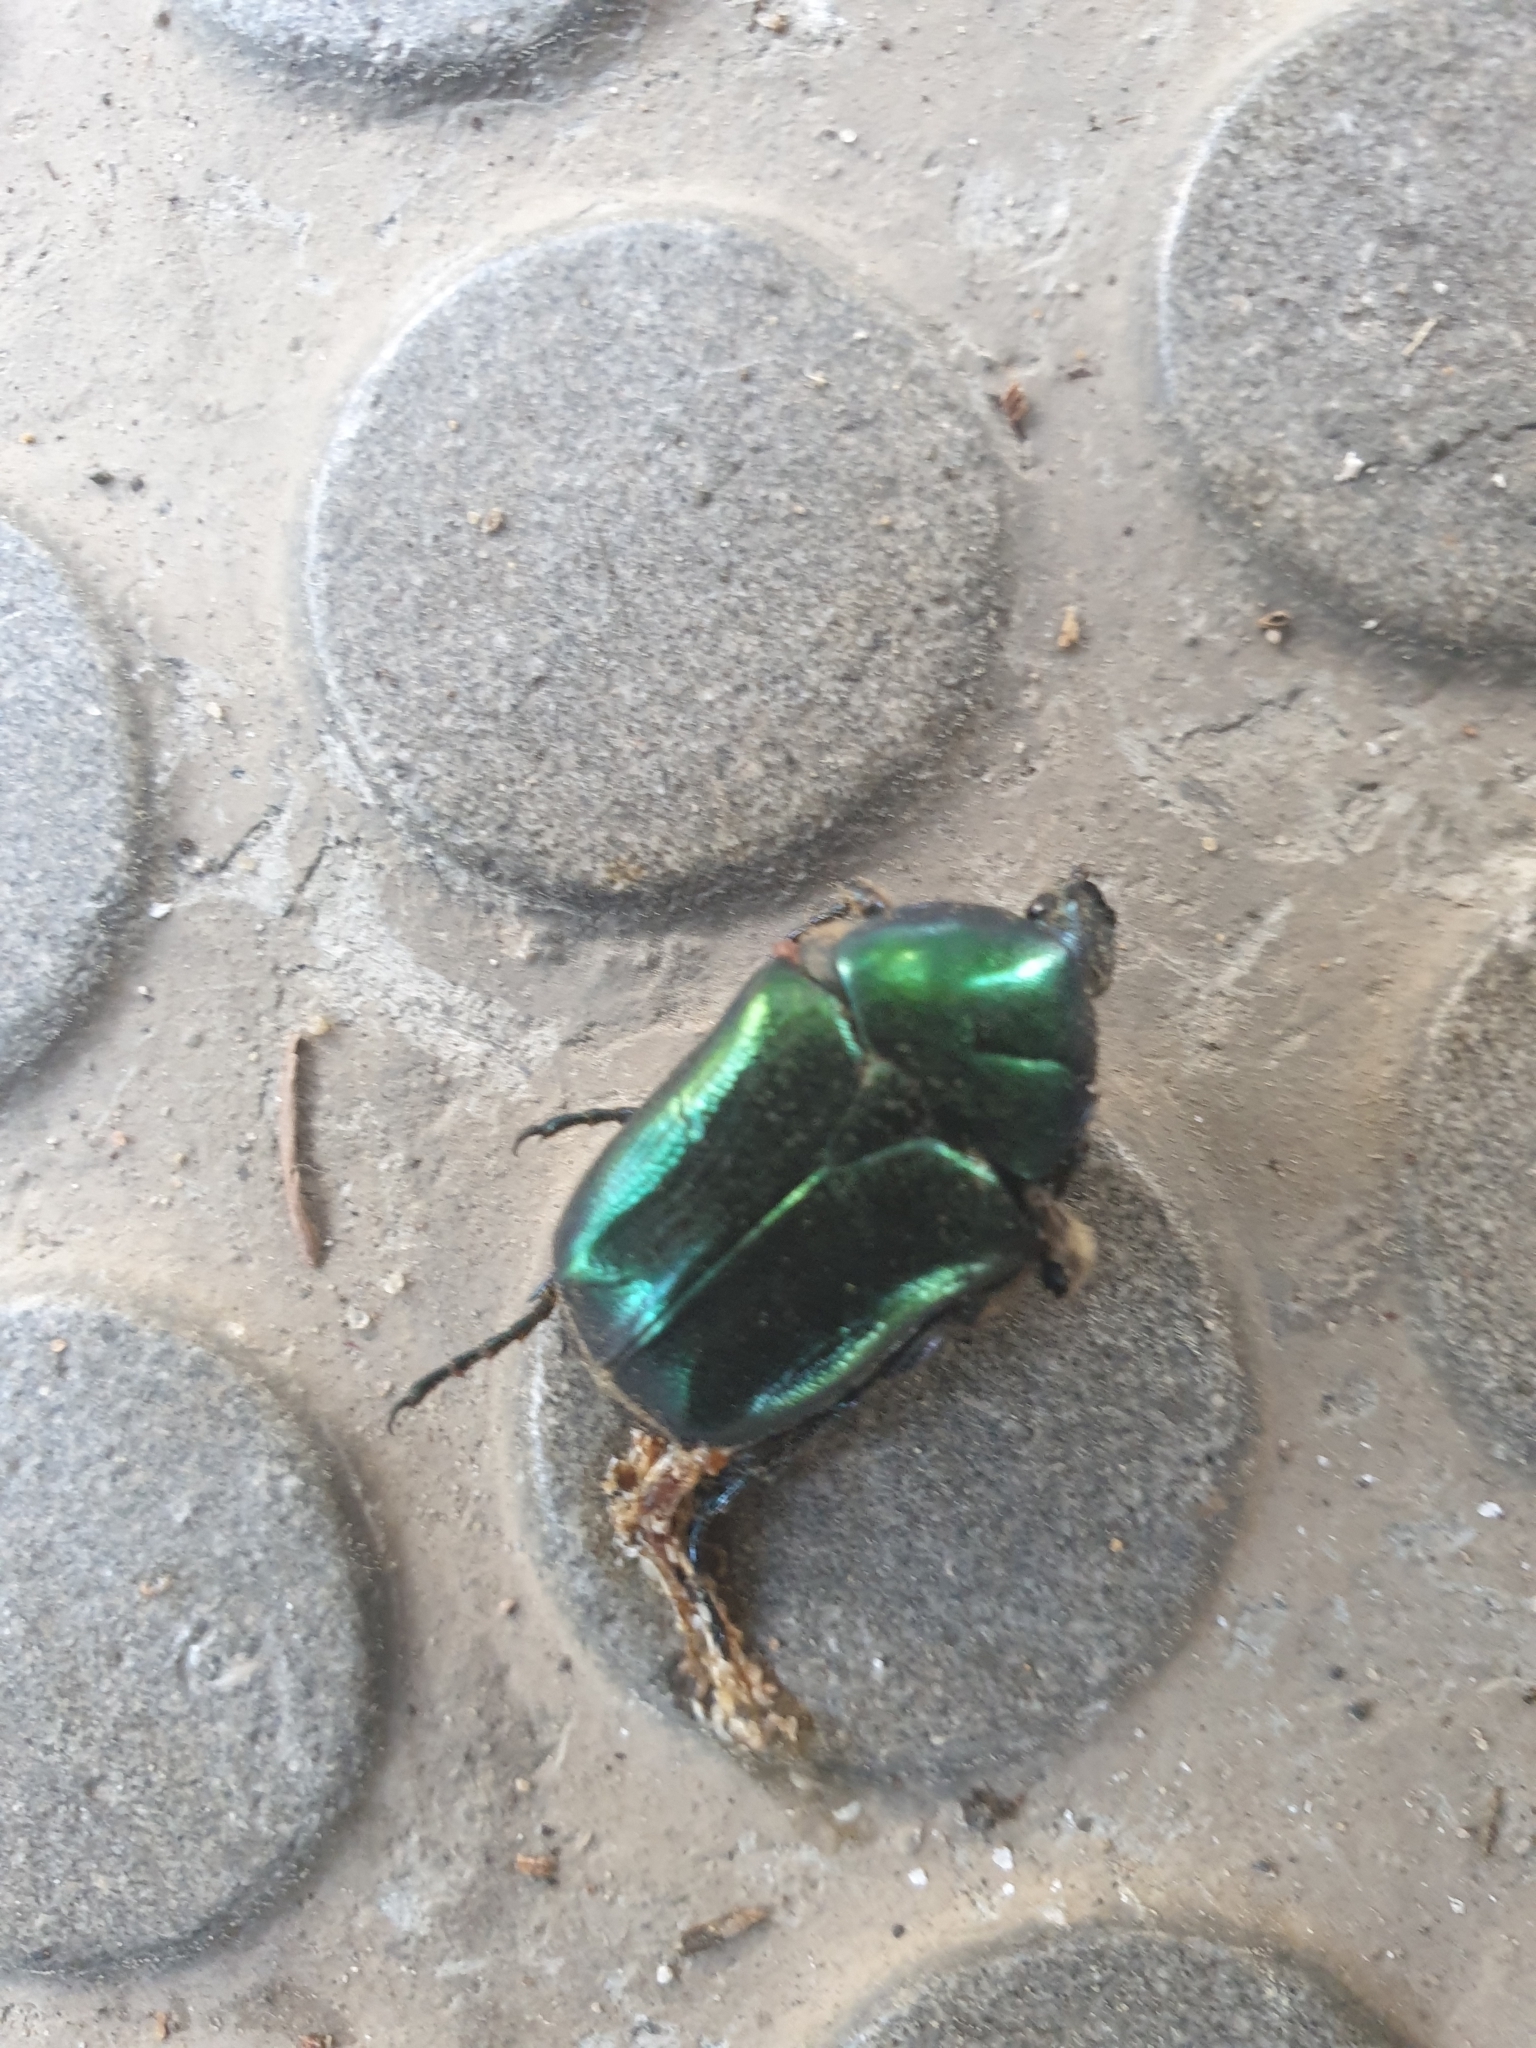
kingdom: Animalia
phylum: Arthropoda
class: Insecta
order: Coleoptera
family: Scarabaeidae
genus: Protaetia
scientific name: Protaetia judith
